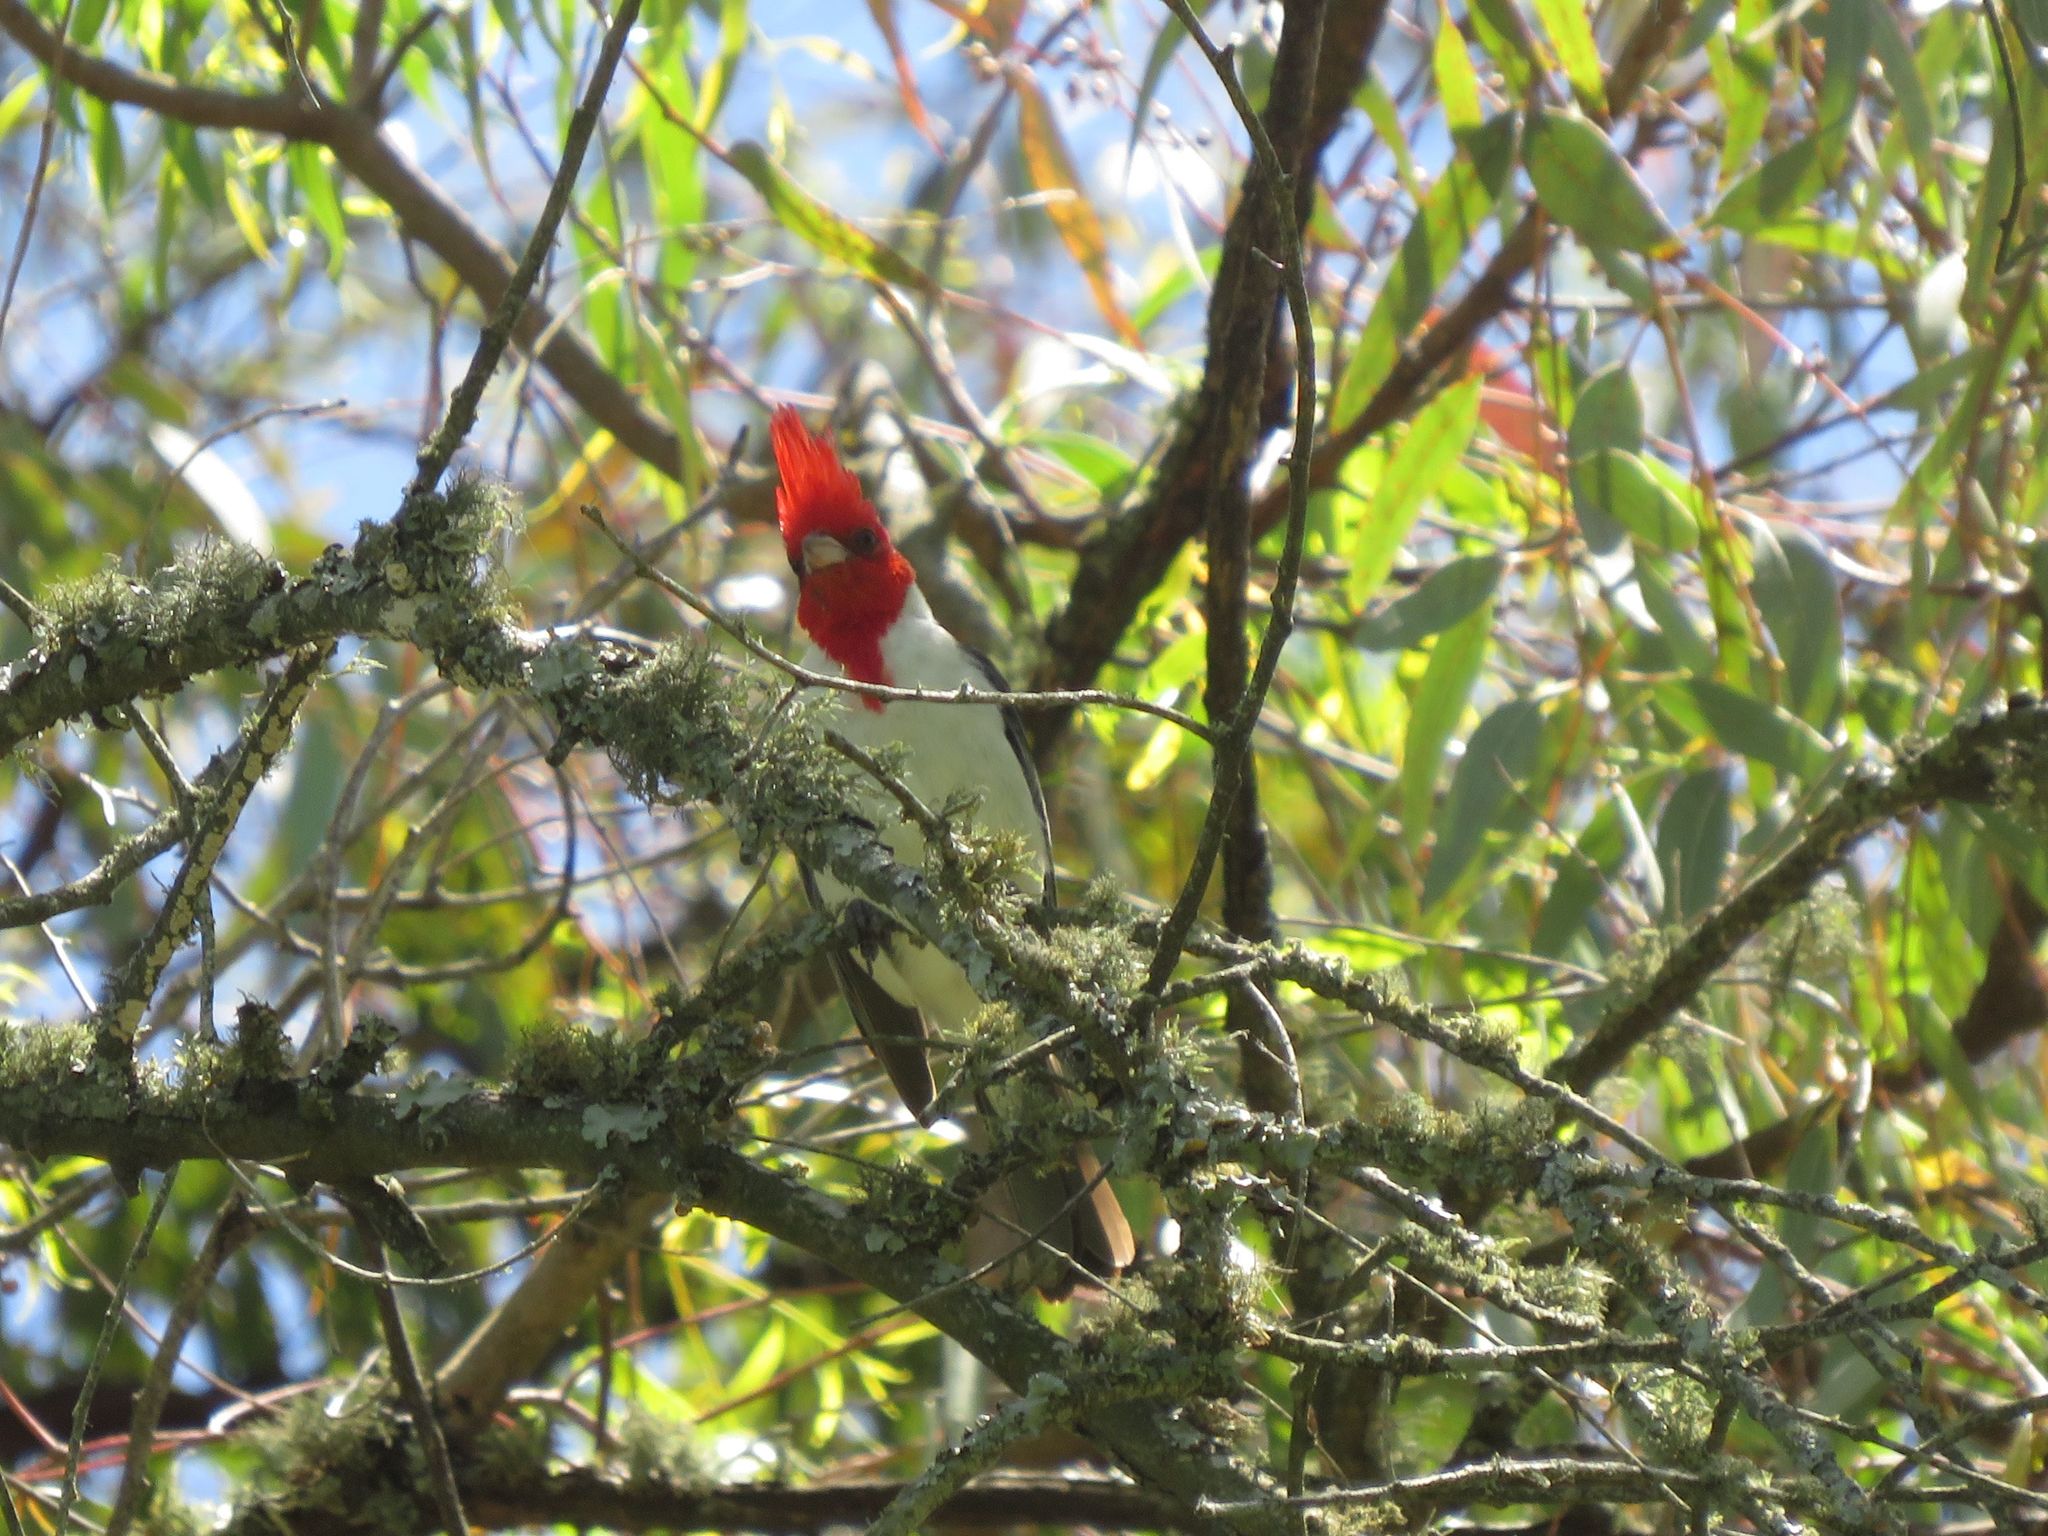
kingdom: Animalia
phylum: Chordata
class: Aves
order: Passeriformes
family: Thraupidae
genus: Paroaria
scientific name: Paroaria coronata
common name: Red-crested cardinal
